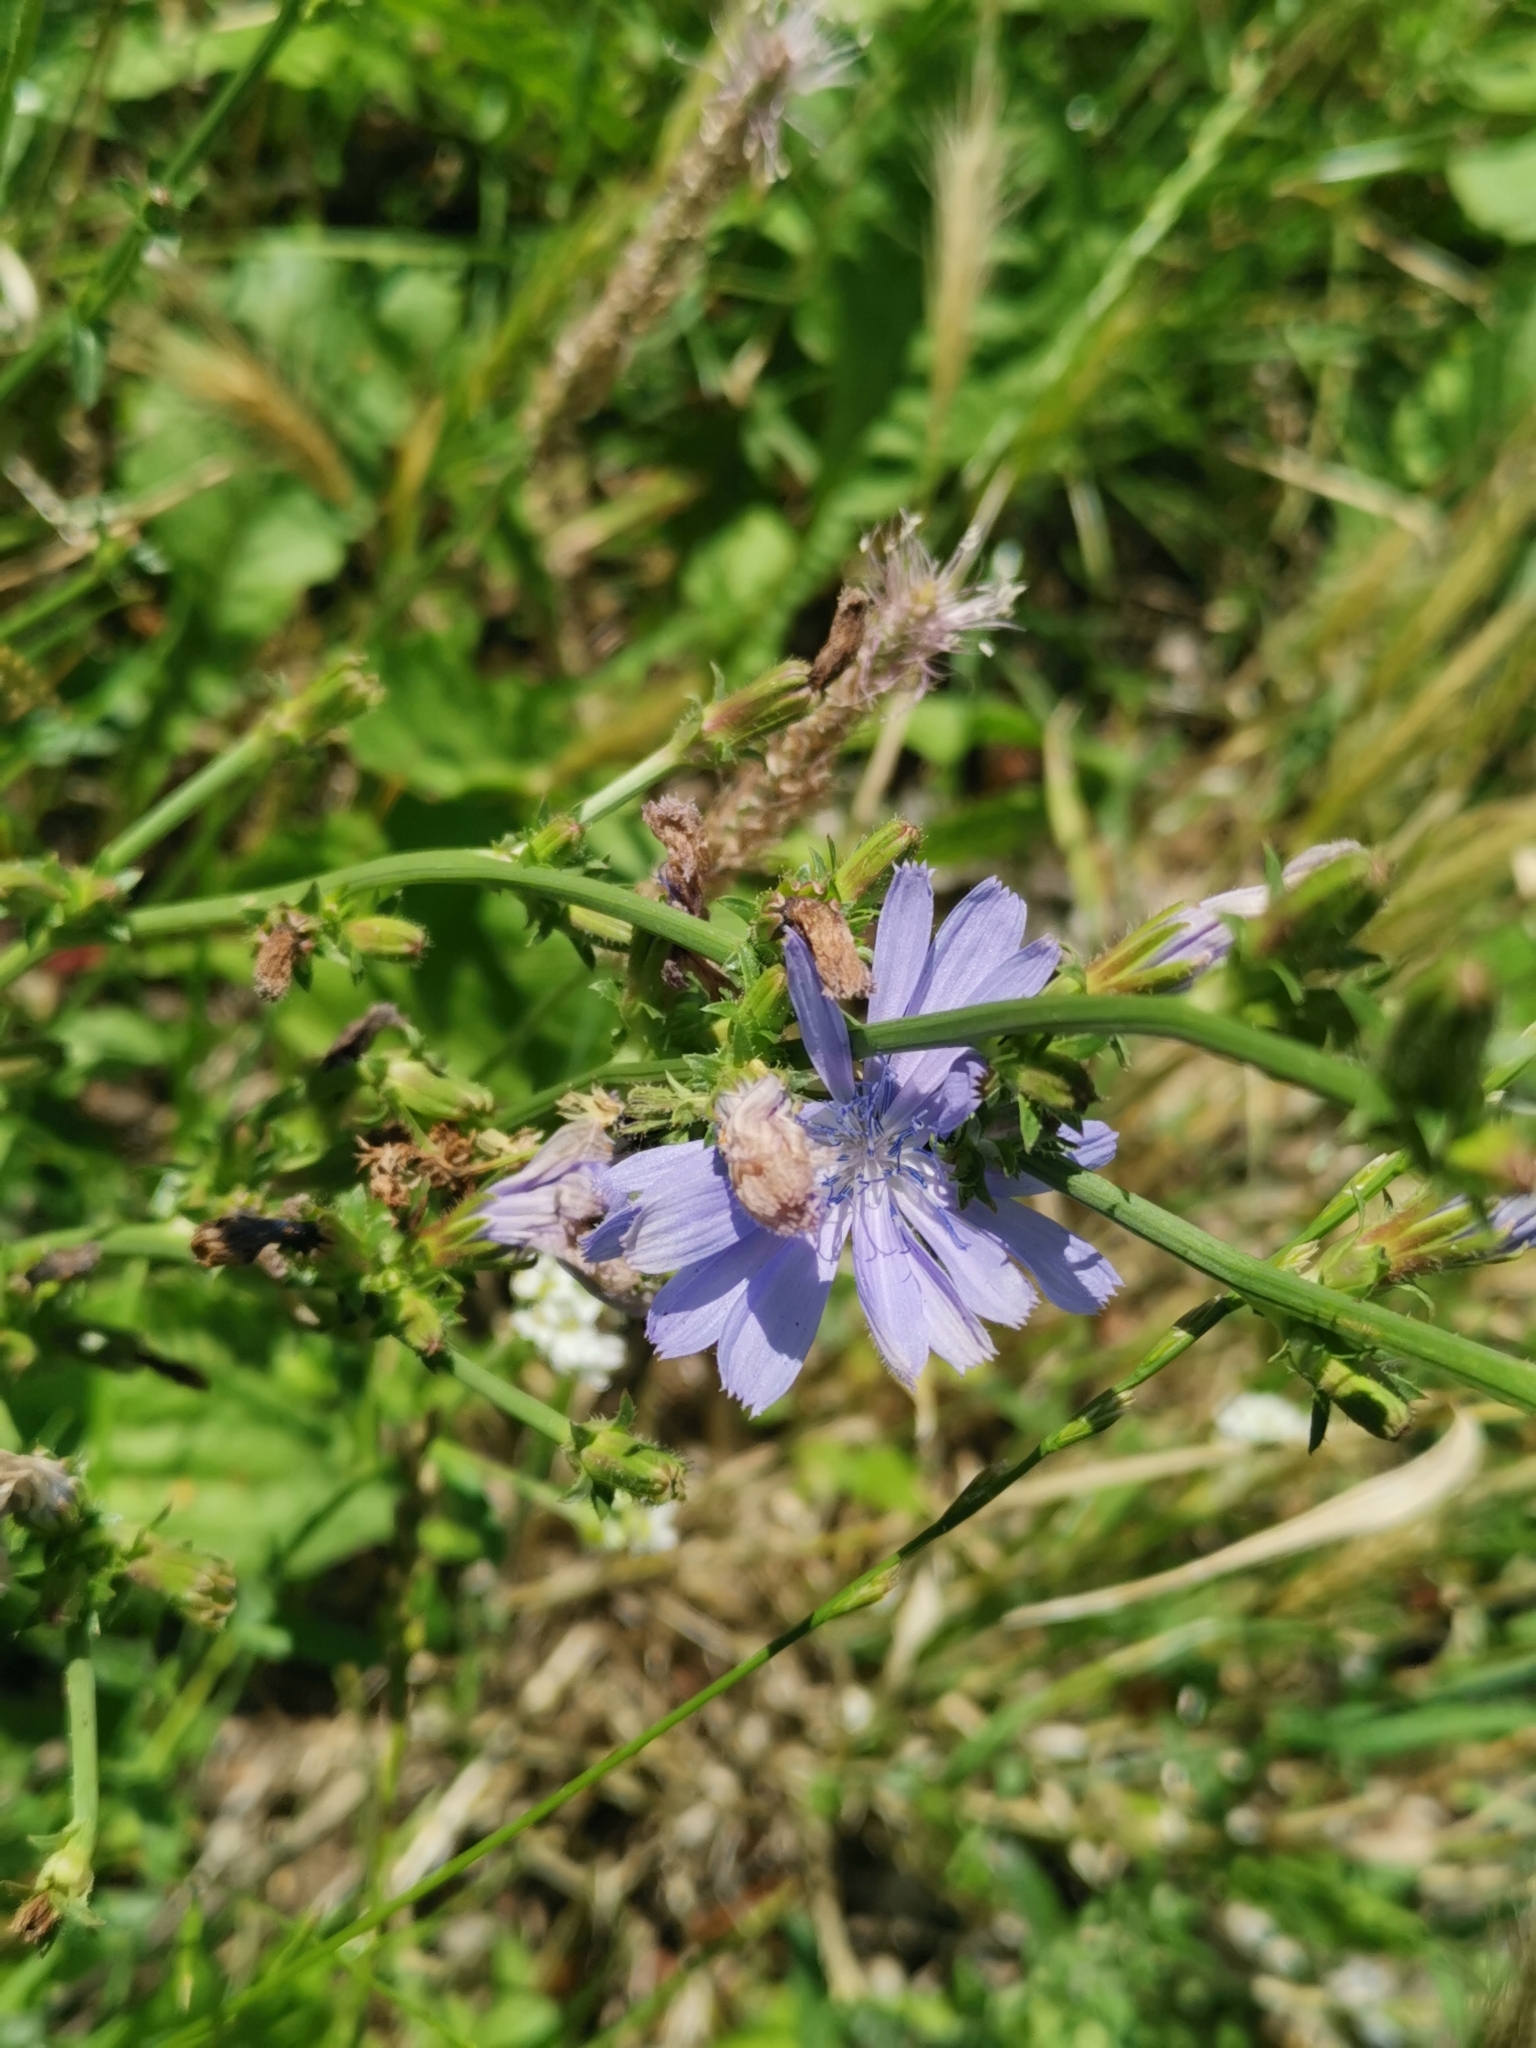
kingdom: Plantae
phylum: Tracheophyta
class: Magnoliopsida
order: Asterales
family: Asteraceae
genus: Cichorium
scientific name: Cichorium intybus
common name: Chicory
